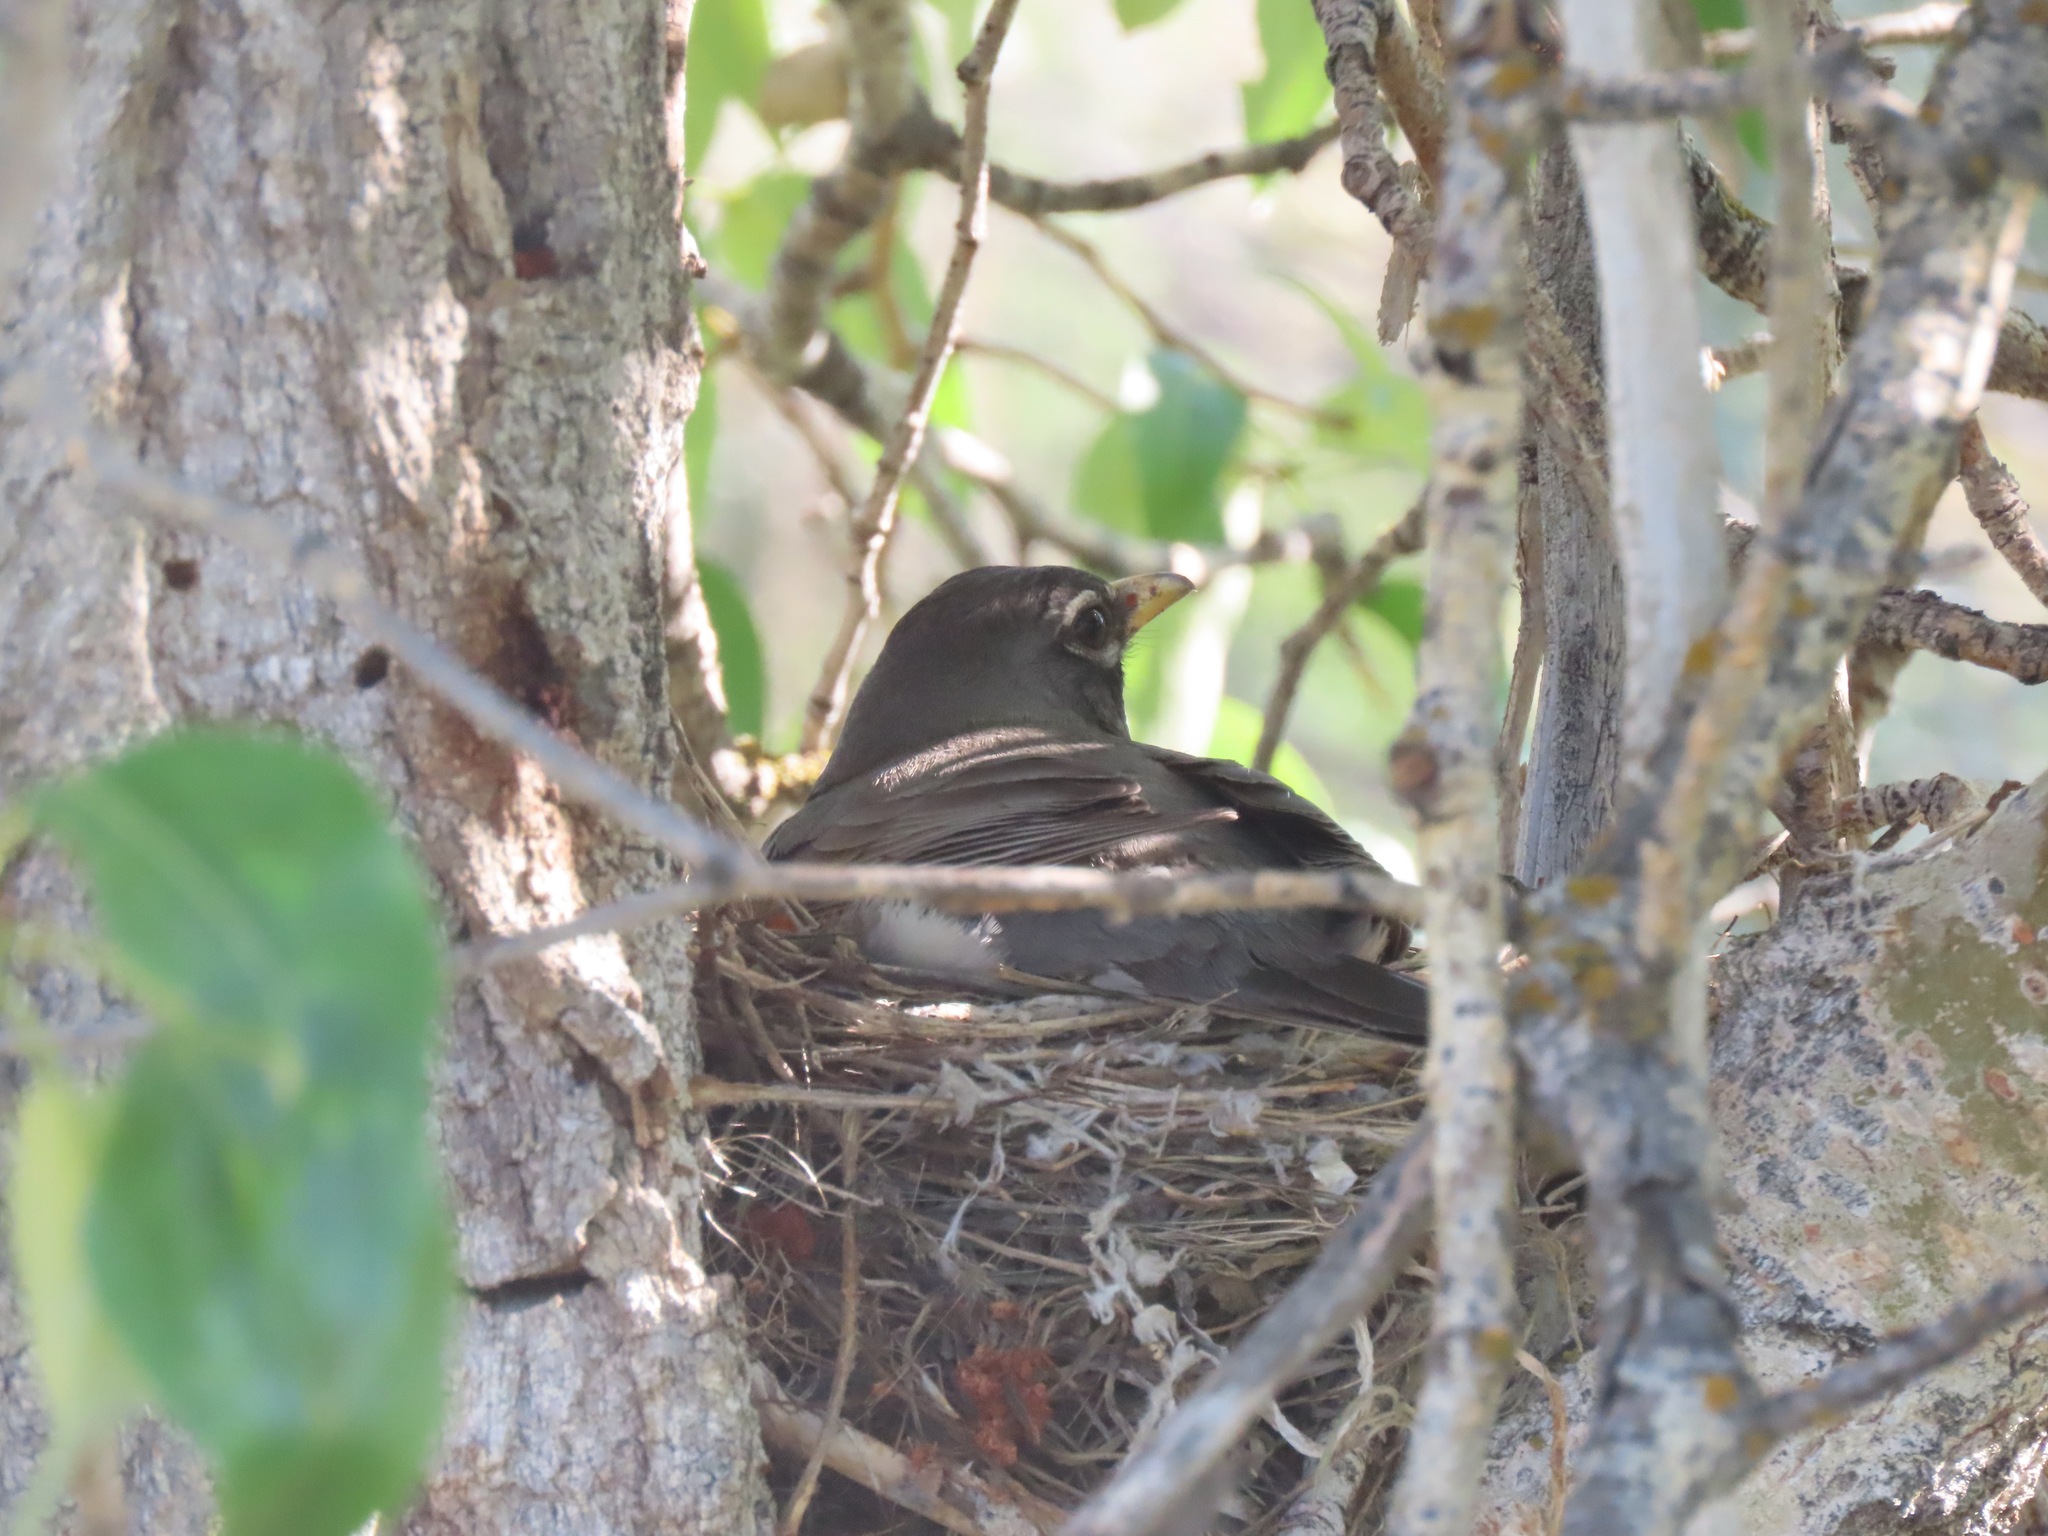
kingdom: Animalia
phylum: Chordata
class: Aves
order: Passeriformes
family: Turdidae
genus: Turdus
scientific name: Turdus migratorius
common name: American robin
